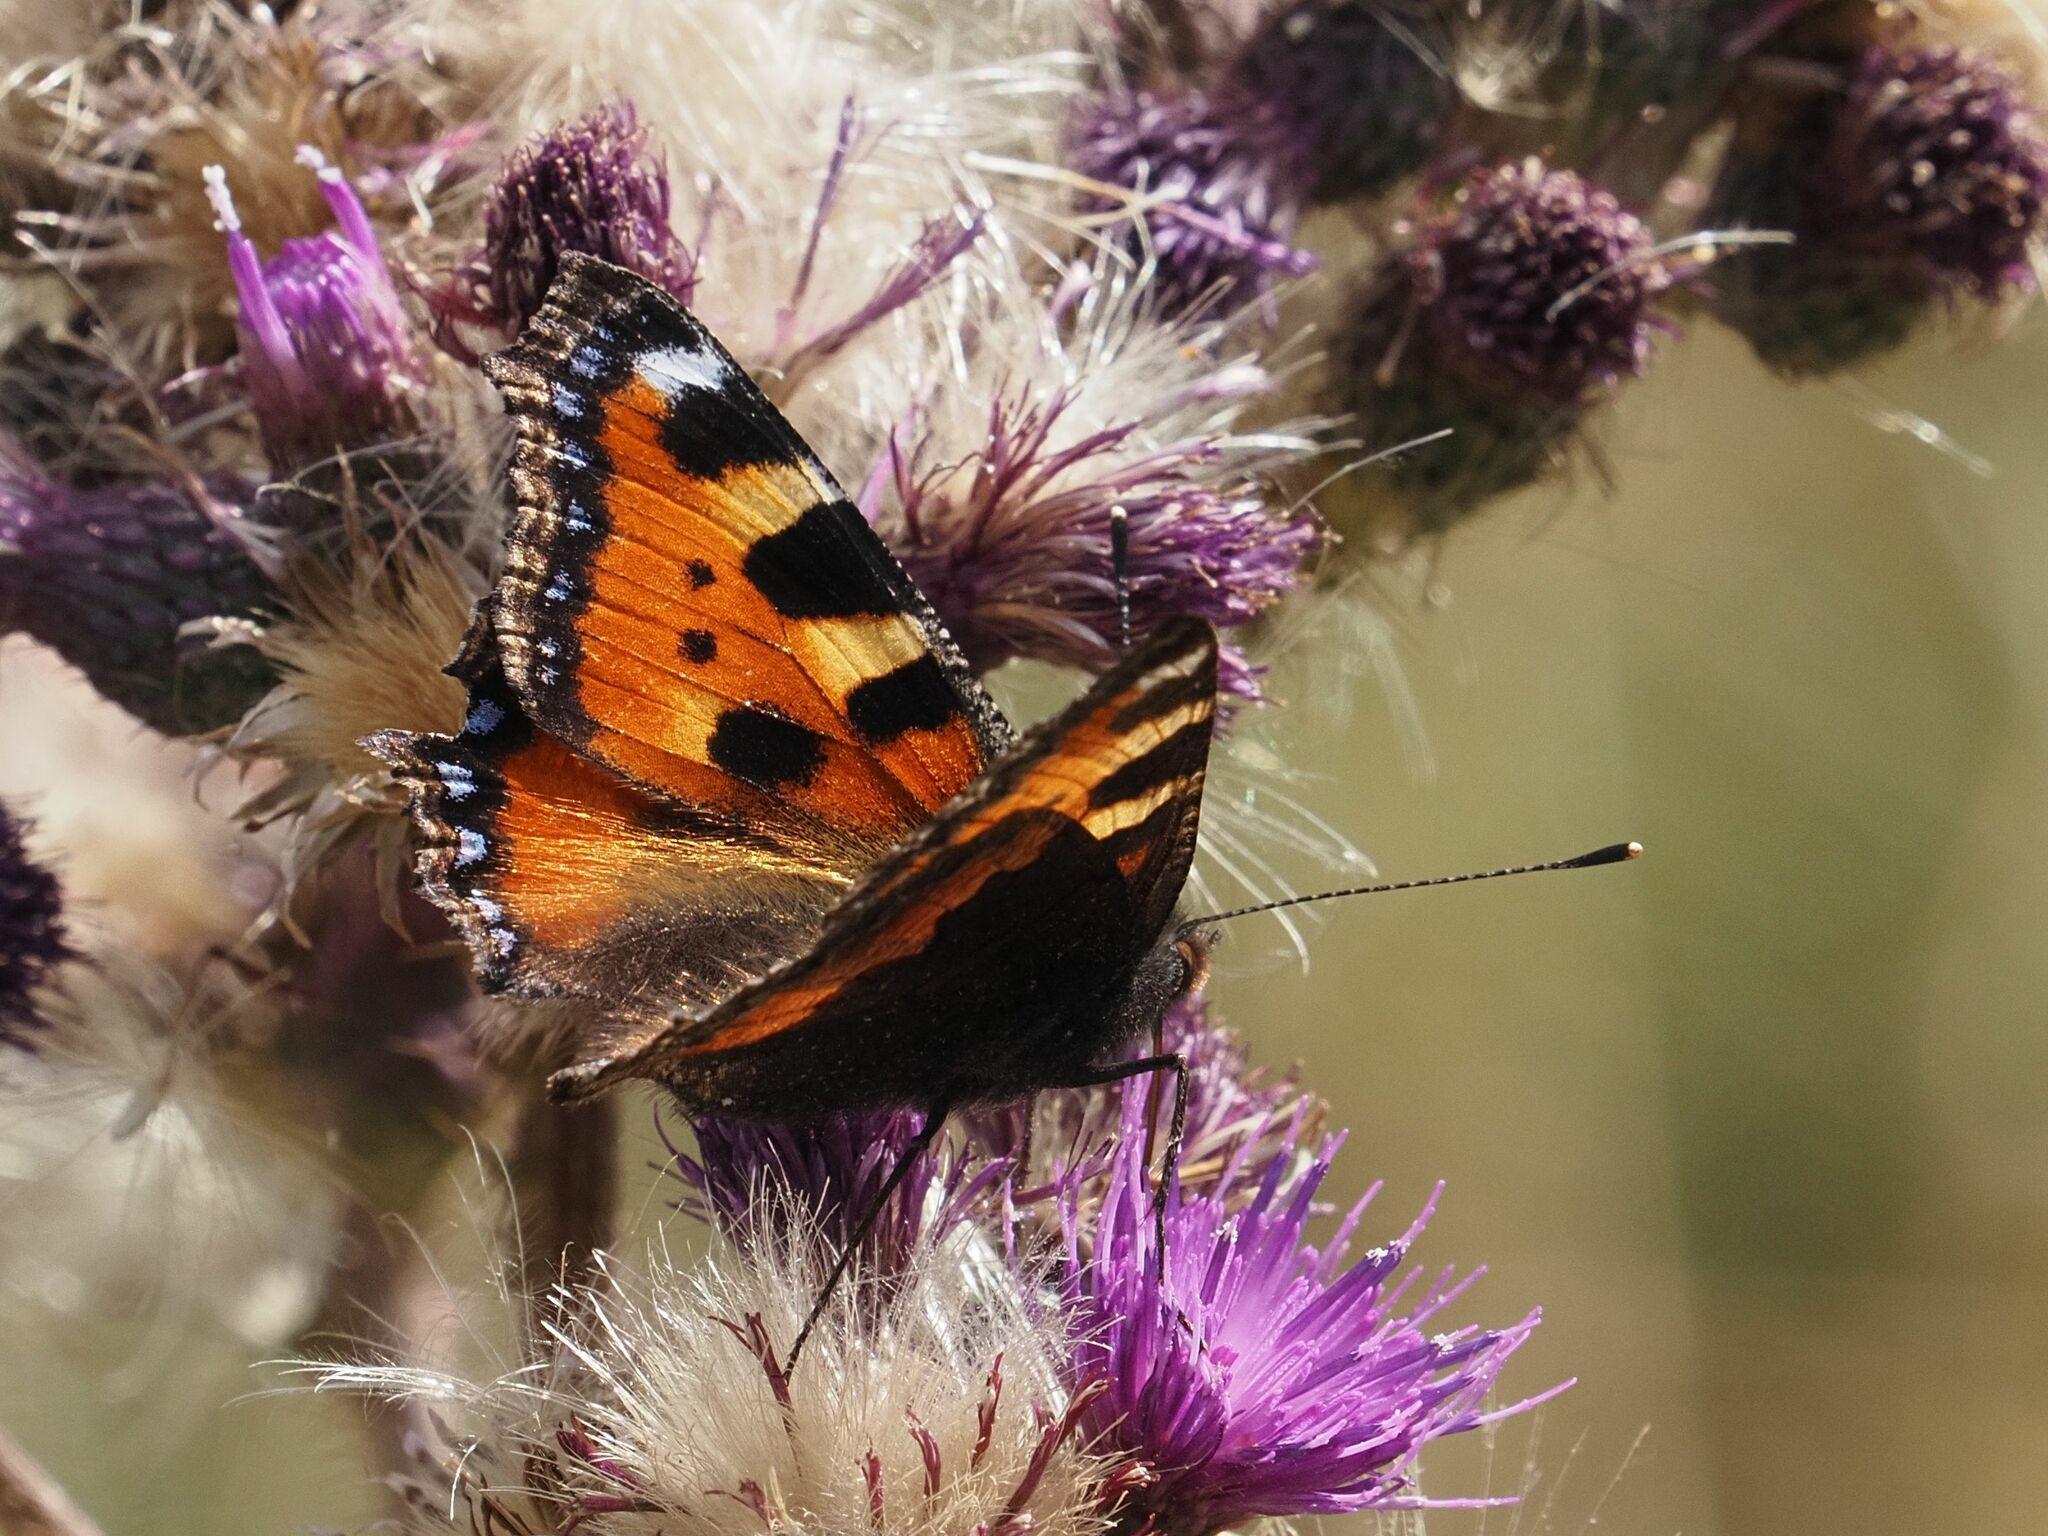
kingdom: Animalia
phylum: Arthropoda
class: Insecta
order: Lepidoptera
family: Nymphalidae
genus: Aglais
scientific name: Aglais urticae
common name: Small tortoiseshell
